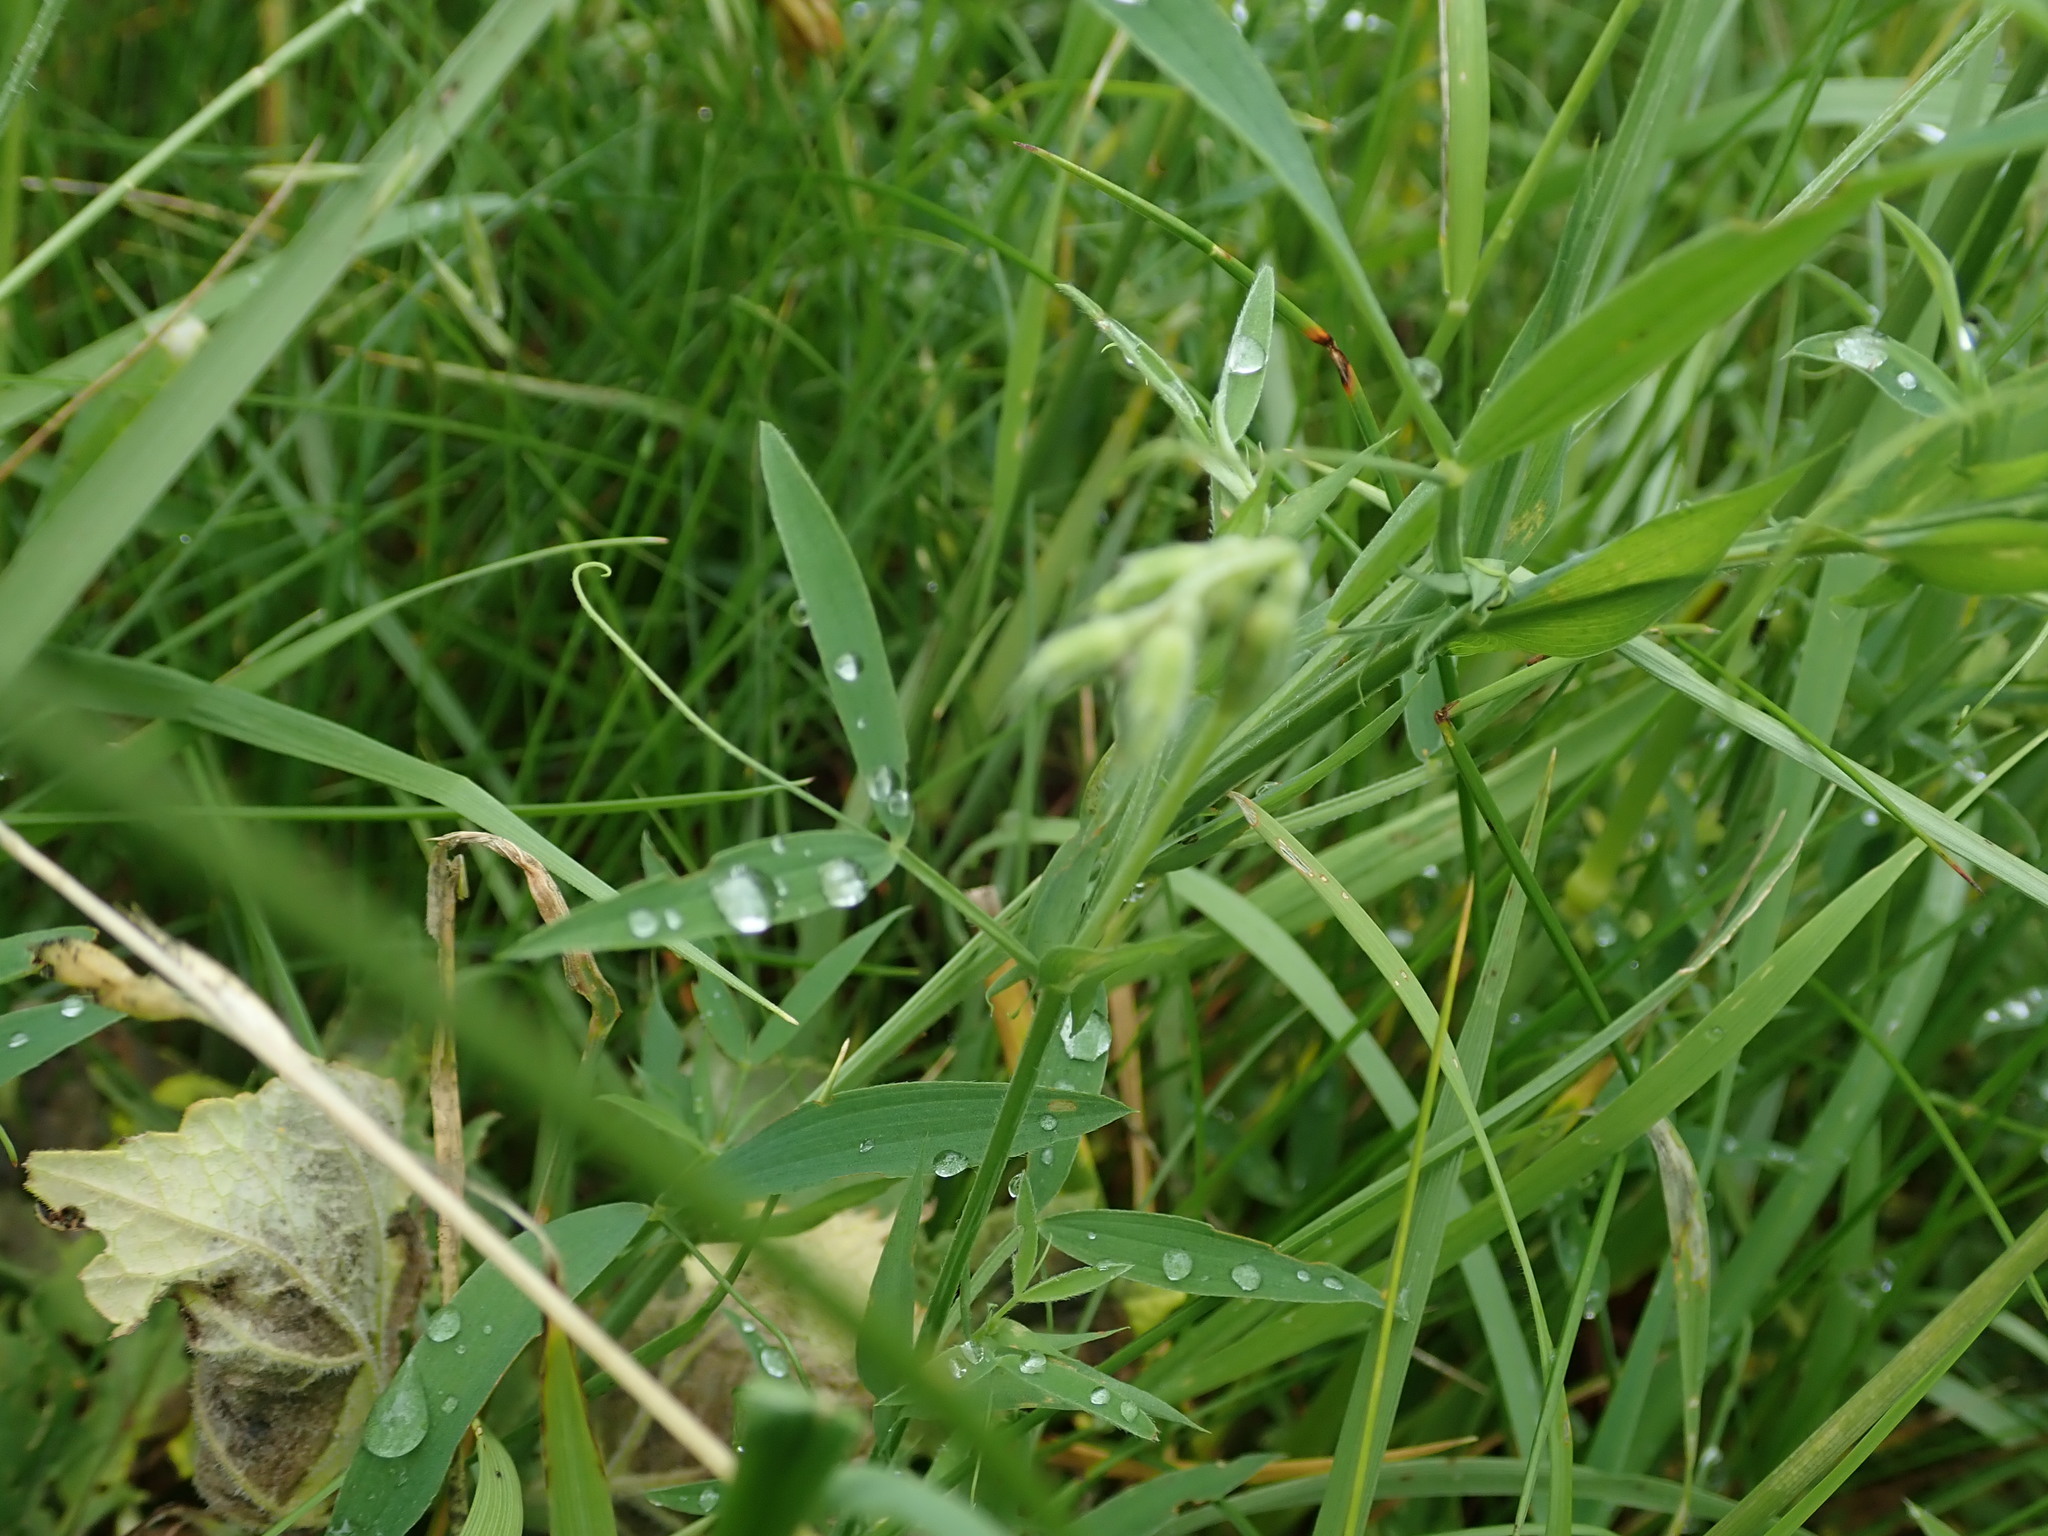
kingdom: Plantae
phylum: Tracheophyta
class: Magnoliopsida
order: Fabales
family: Fabaceae
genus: Lathyrus
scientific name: Lathyrus pratensis
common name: Meadow vetchling
